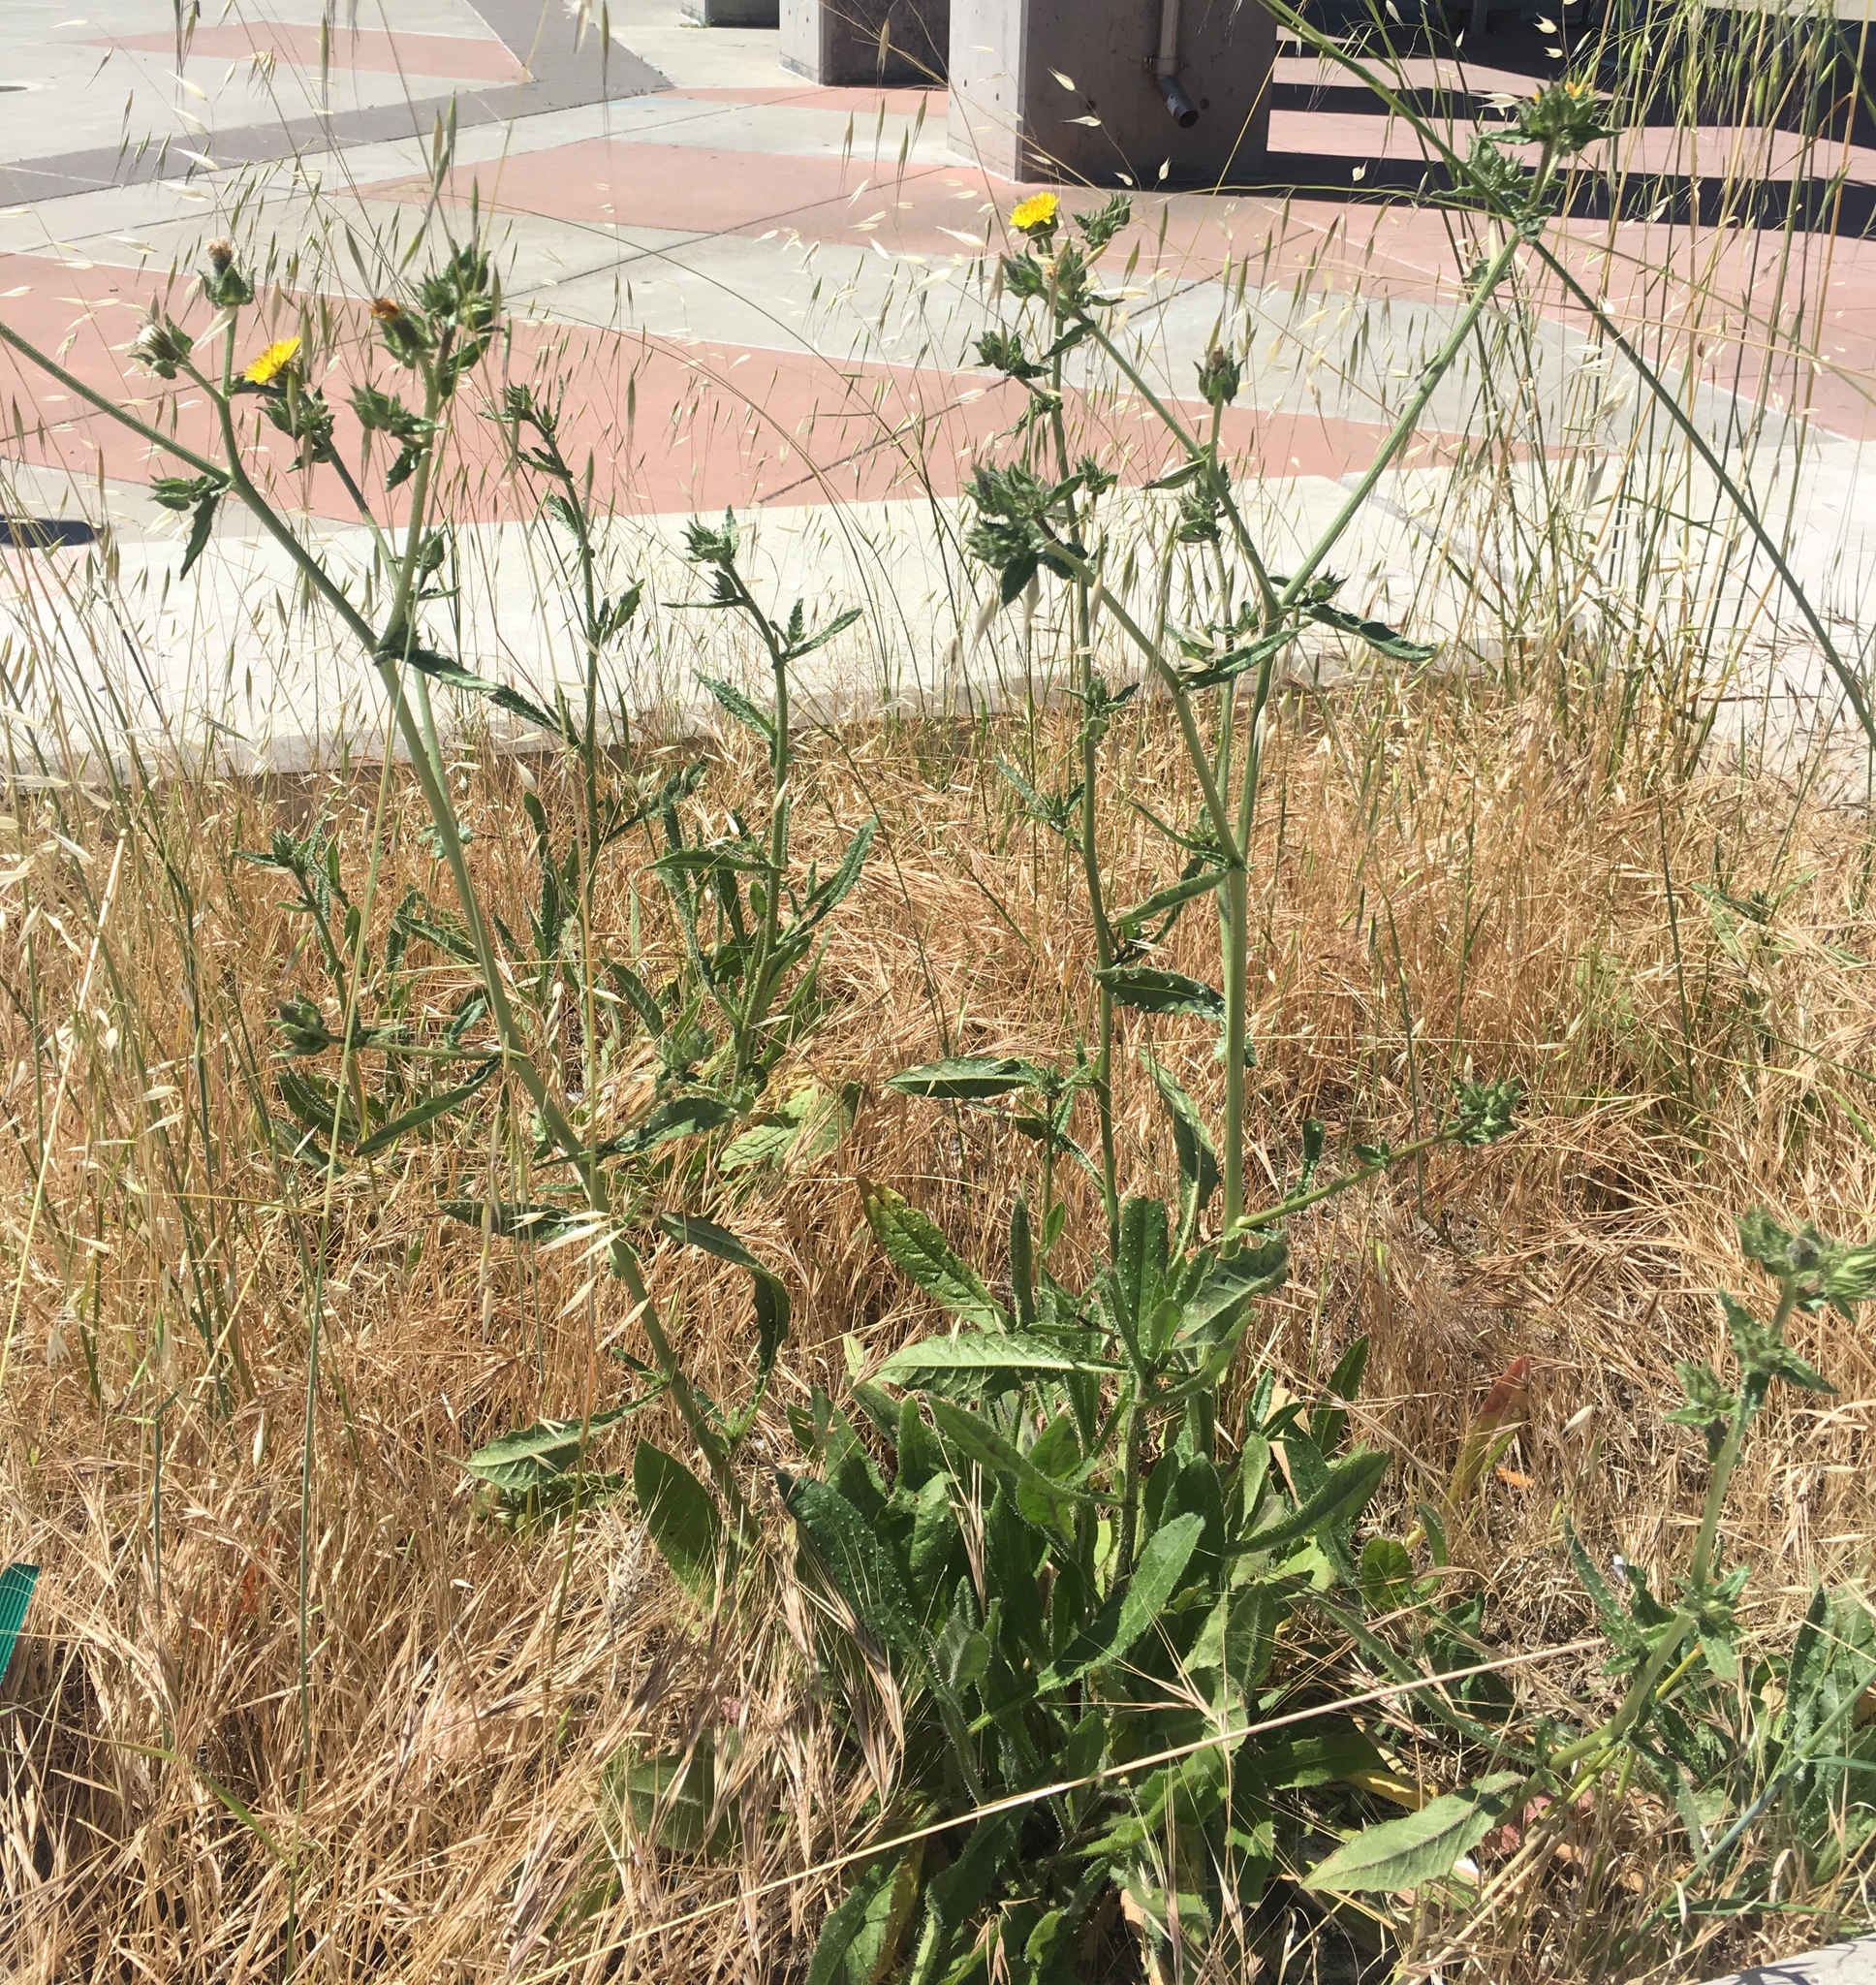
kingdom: Plantae
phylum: Tracheophyta
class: Magnoliopsida
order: Asterales
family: Asteraceae
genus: Helminthotheca
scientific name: Helminthotheca echioides
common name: Ox-tongue
